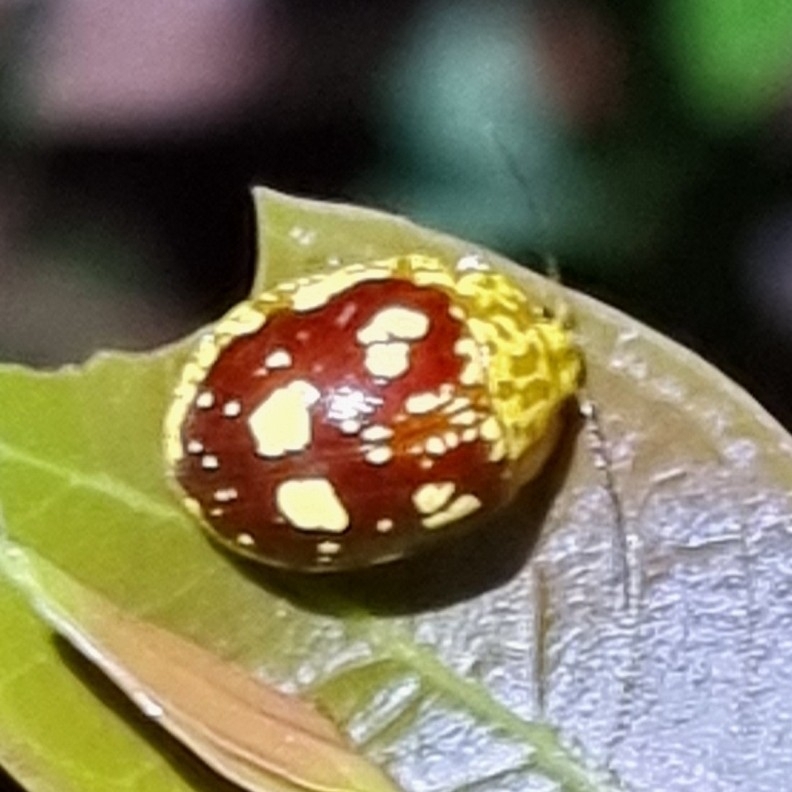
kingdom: Animalia
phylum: Arthropoda
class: Insecta
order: Coleoptera
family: Chrysomelidae
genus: Paropsis
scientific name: Paropsis maculata
